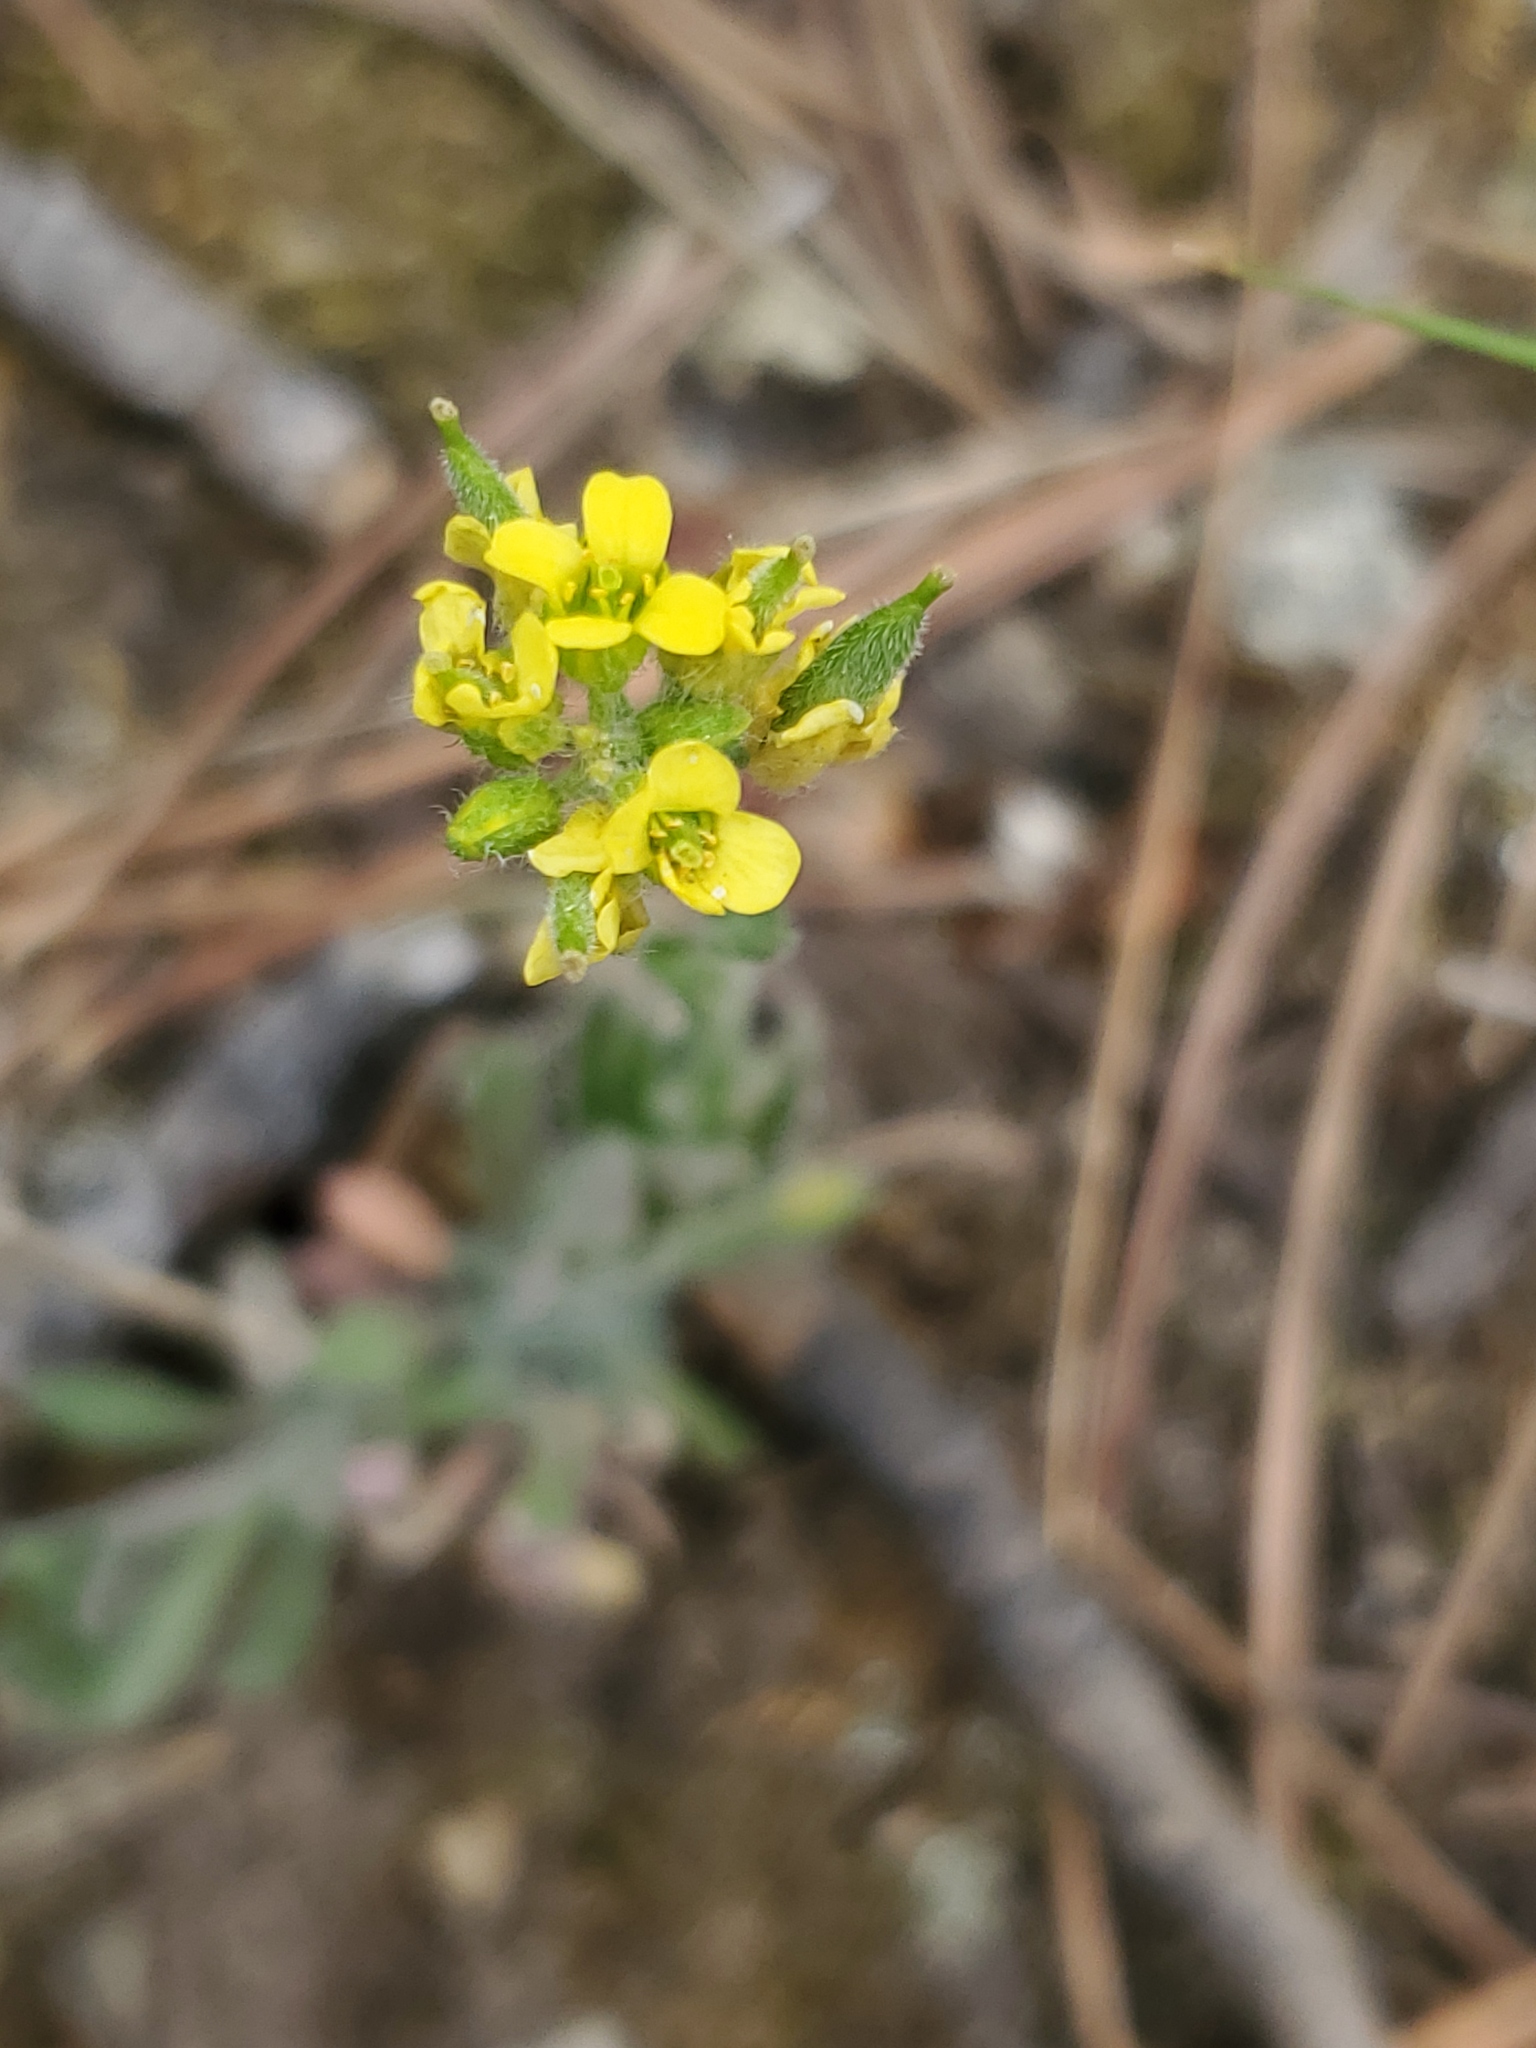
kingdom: Plantae
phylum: Tracheophyta
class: Magnoliopsida
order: Brassicales
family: Brassicaceae
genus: Draba
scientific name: Draba aurea
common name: Golden draba
